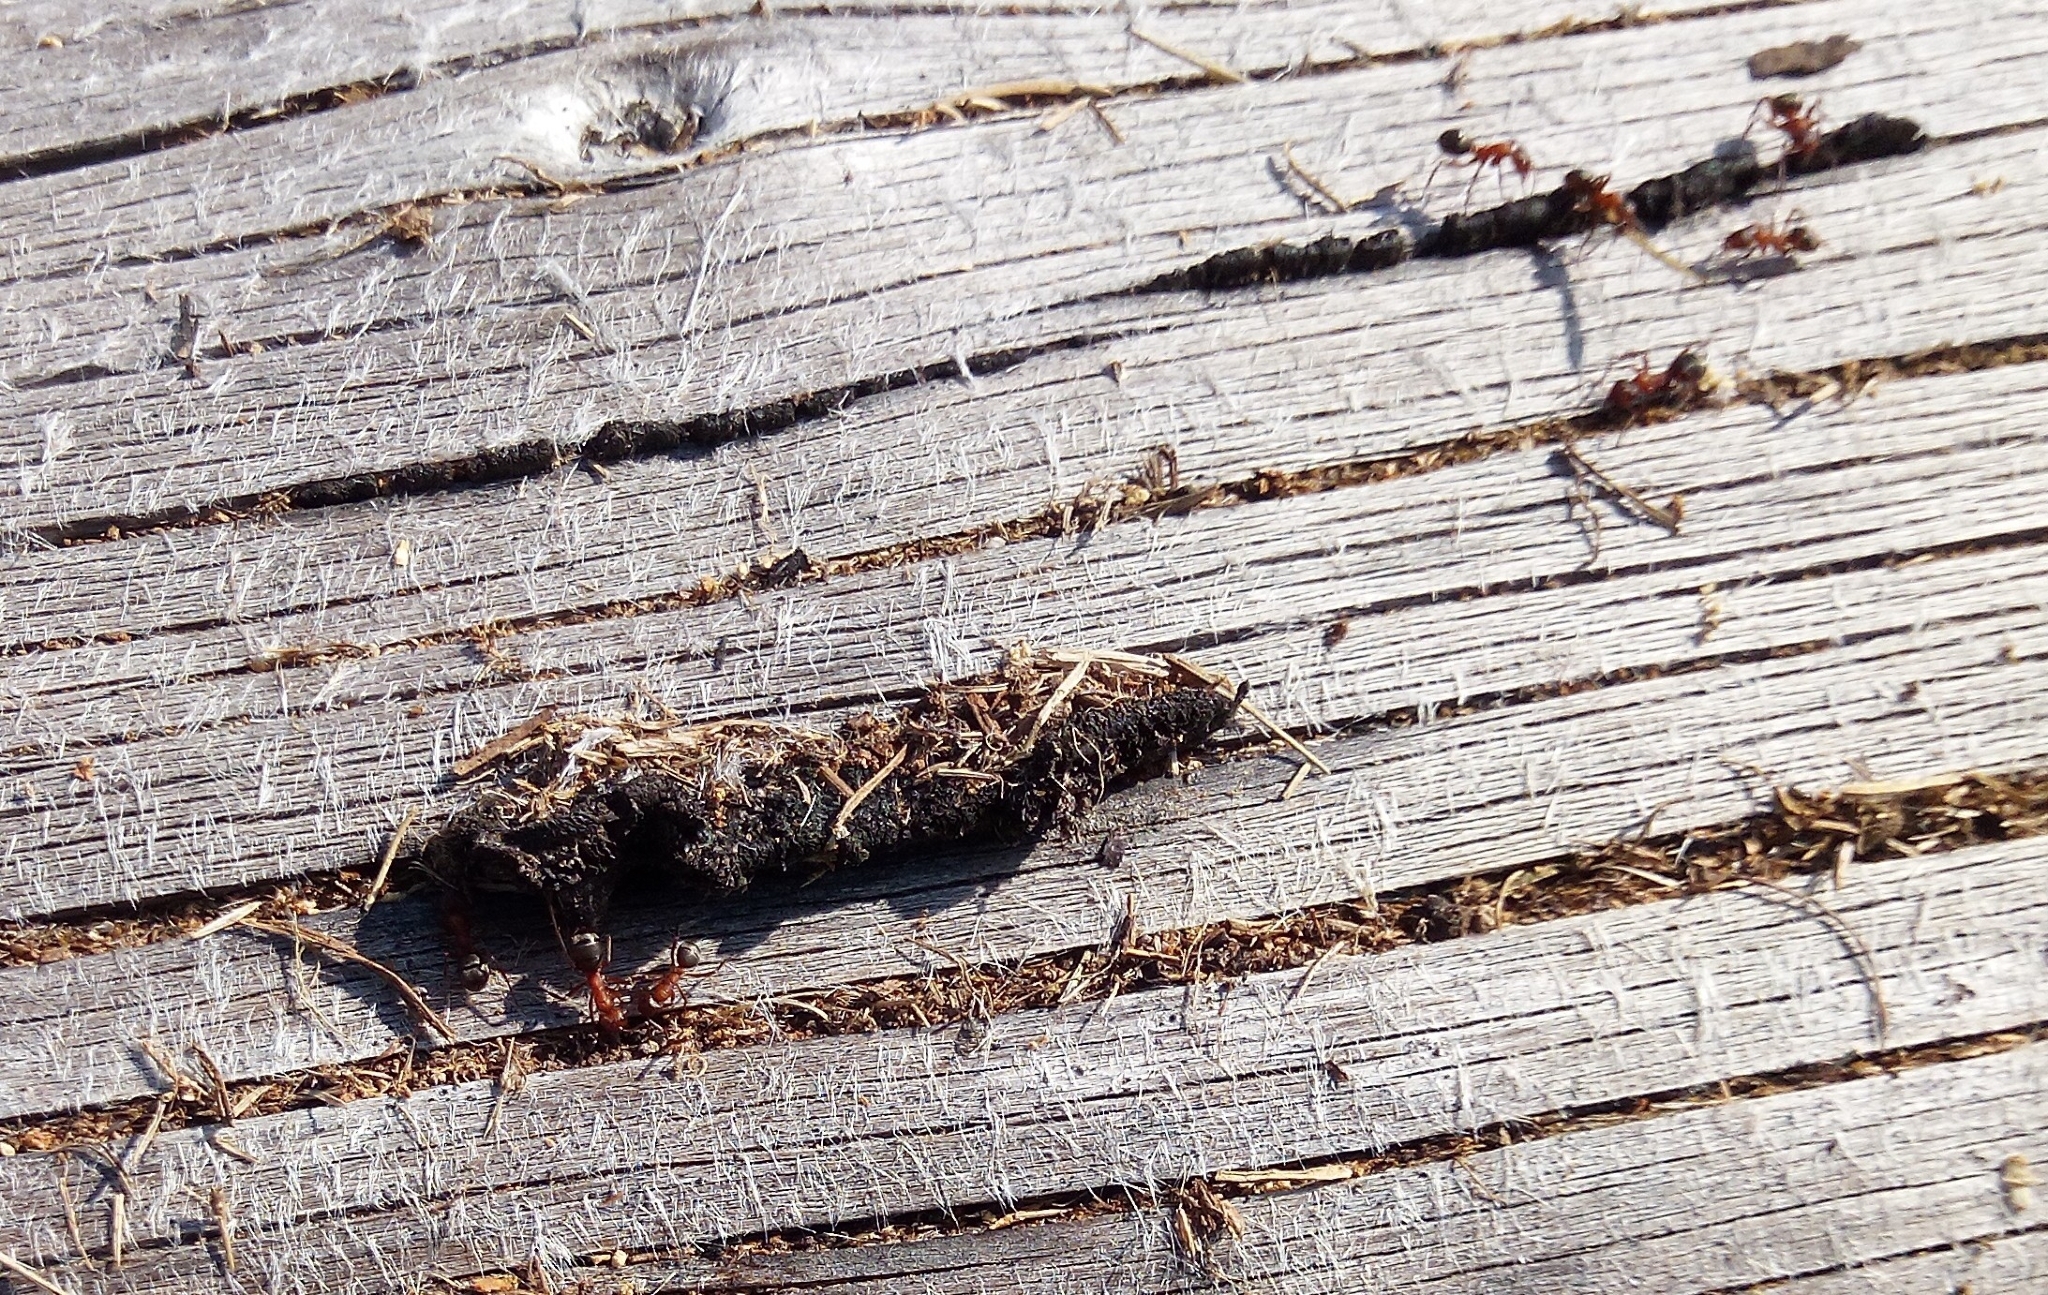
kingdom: Animalia
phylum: Arthropoda
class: Insecta
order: Hymenoptera
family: Formicidae
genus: Formica
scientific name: Formica sanguinea
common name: Blood-red ant
